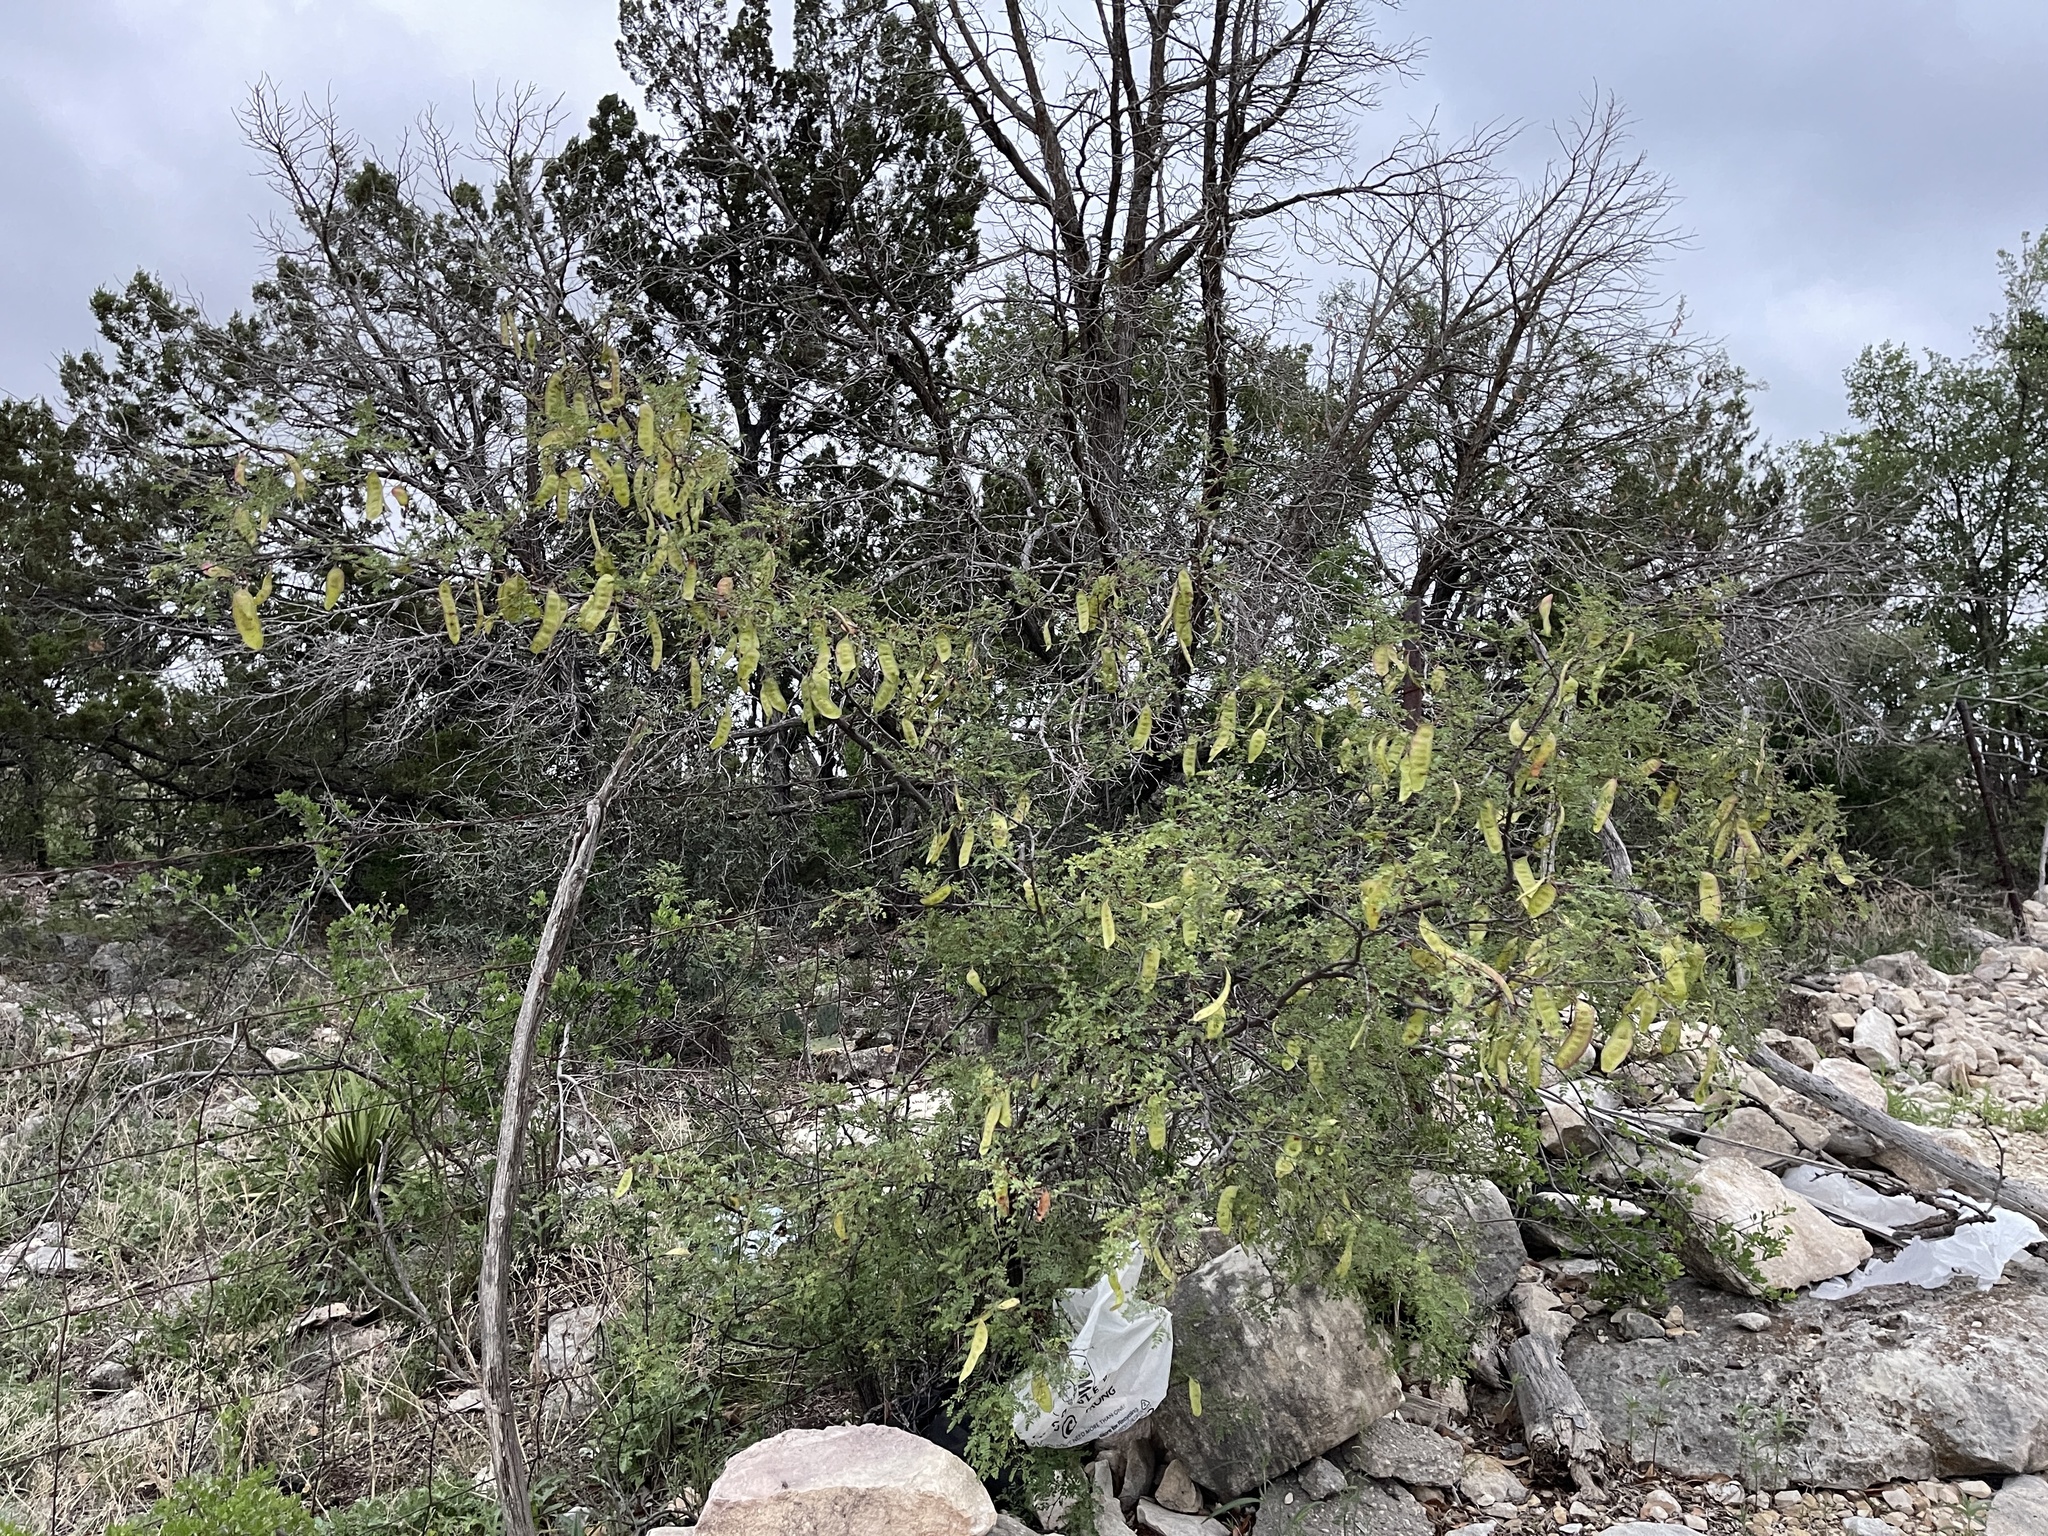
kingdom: Plantae
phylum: Tracheophyta
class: Magnoliopsida
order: Fabales
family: Fabaceae
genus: Senegalia
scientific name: Senegalia roemeriana
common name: Roemer's acacia
